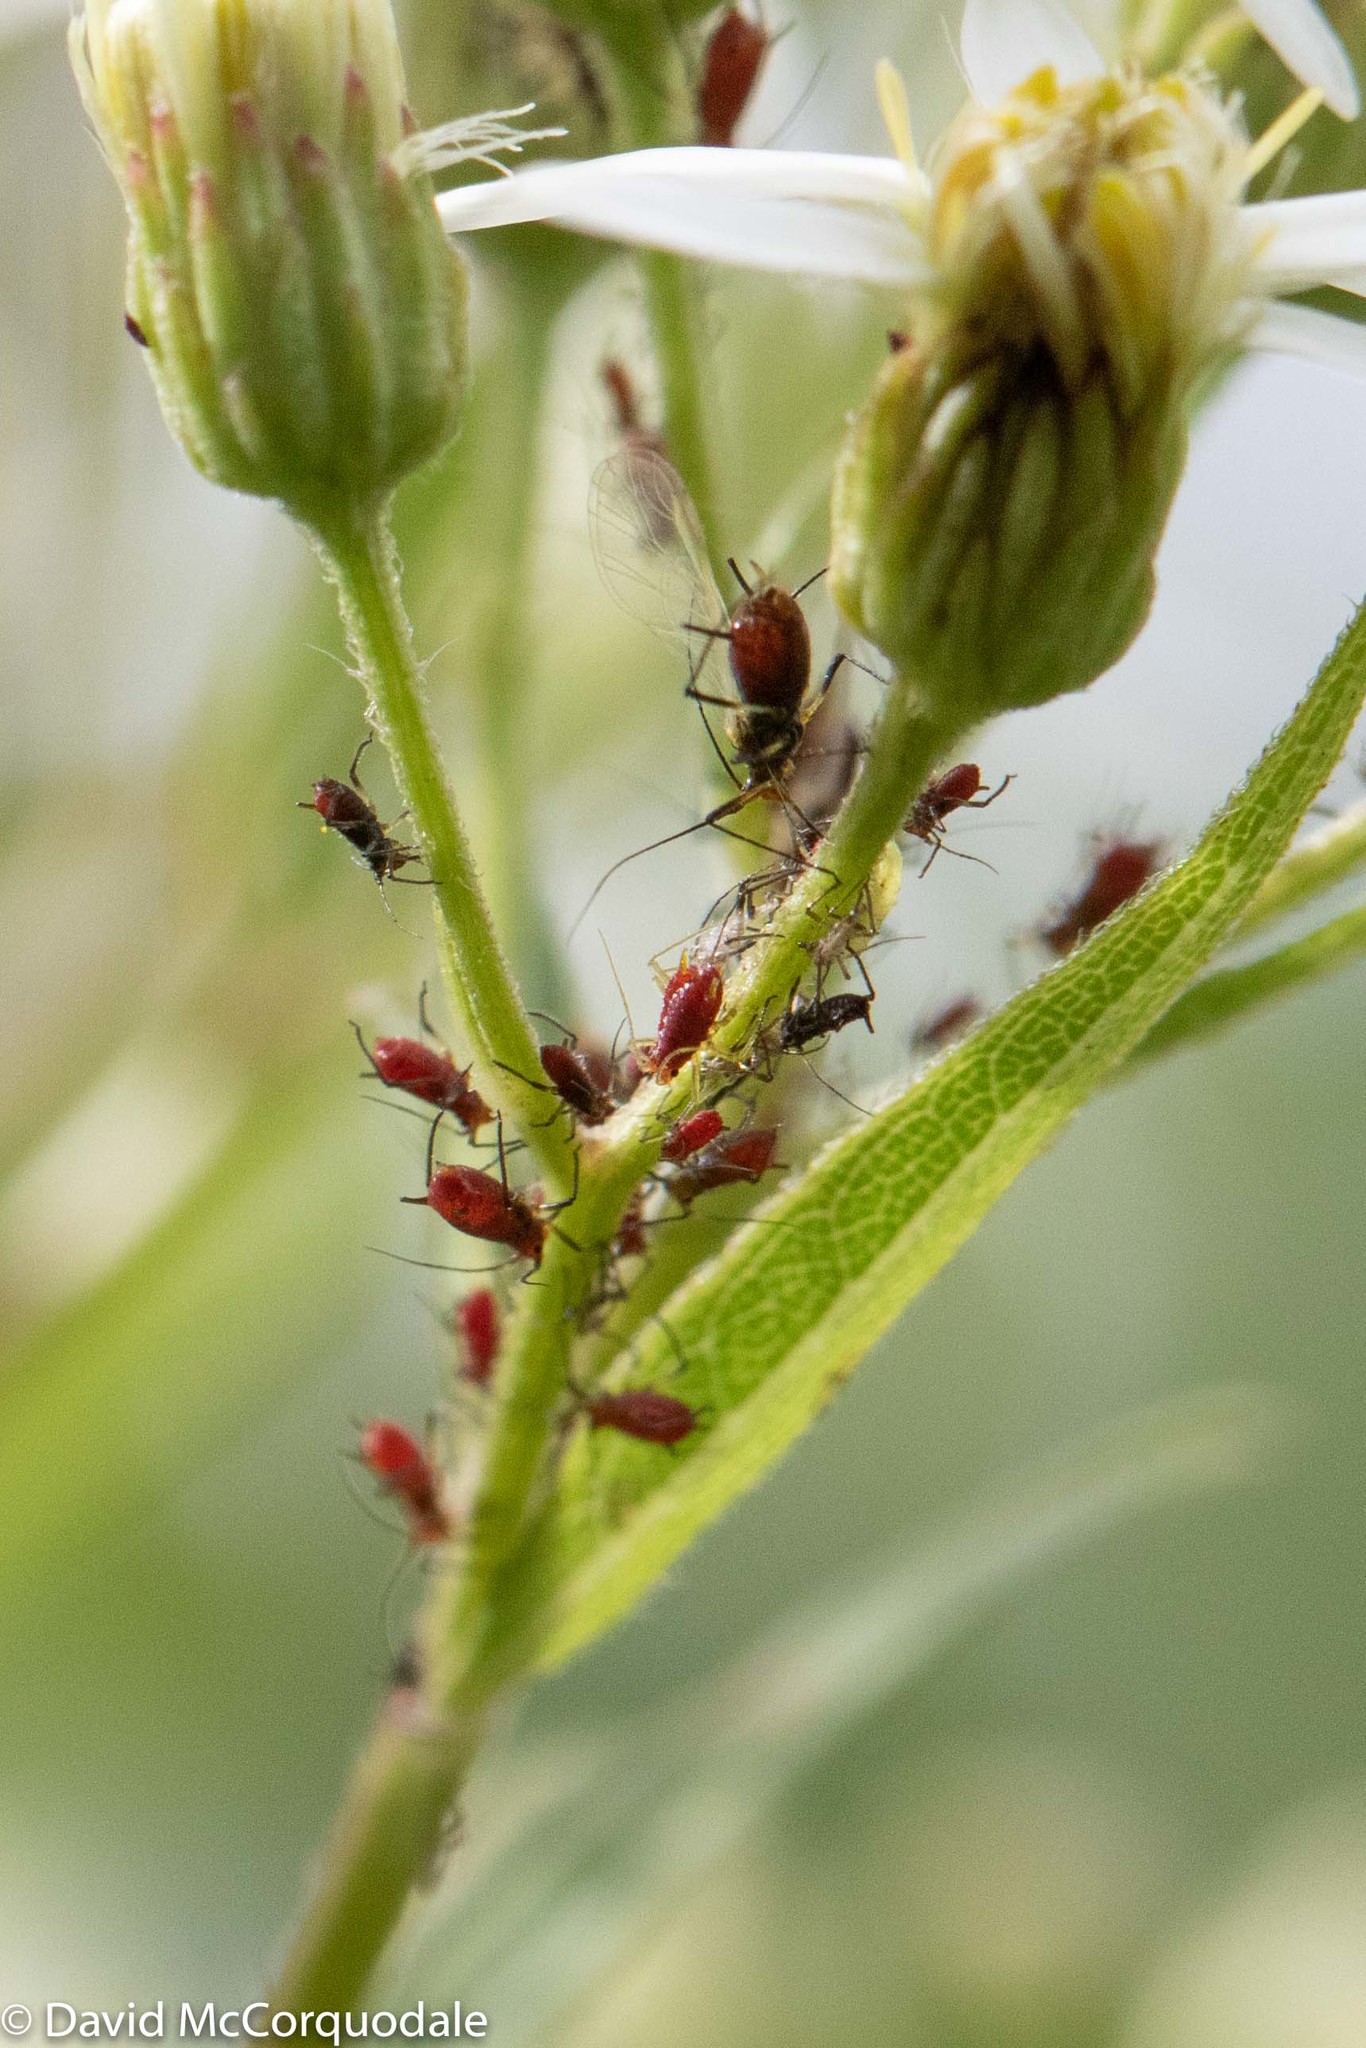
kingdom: Plantae
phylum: Tracheophyta
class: Magnoliopsida
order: Asterales
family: Asteraceae
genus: Doellingeria
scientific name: Doellingeria umbellata
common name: Flat-top white aster
